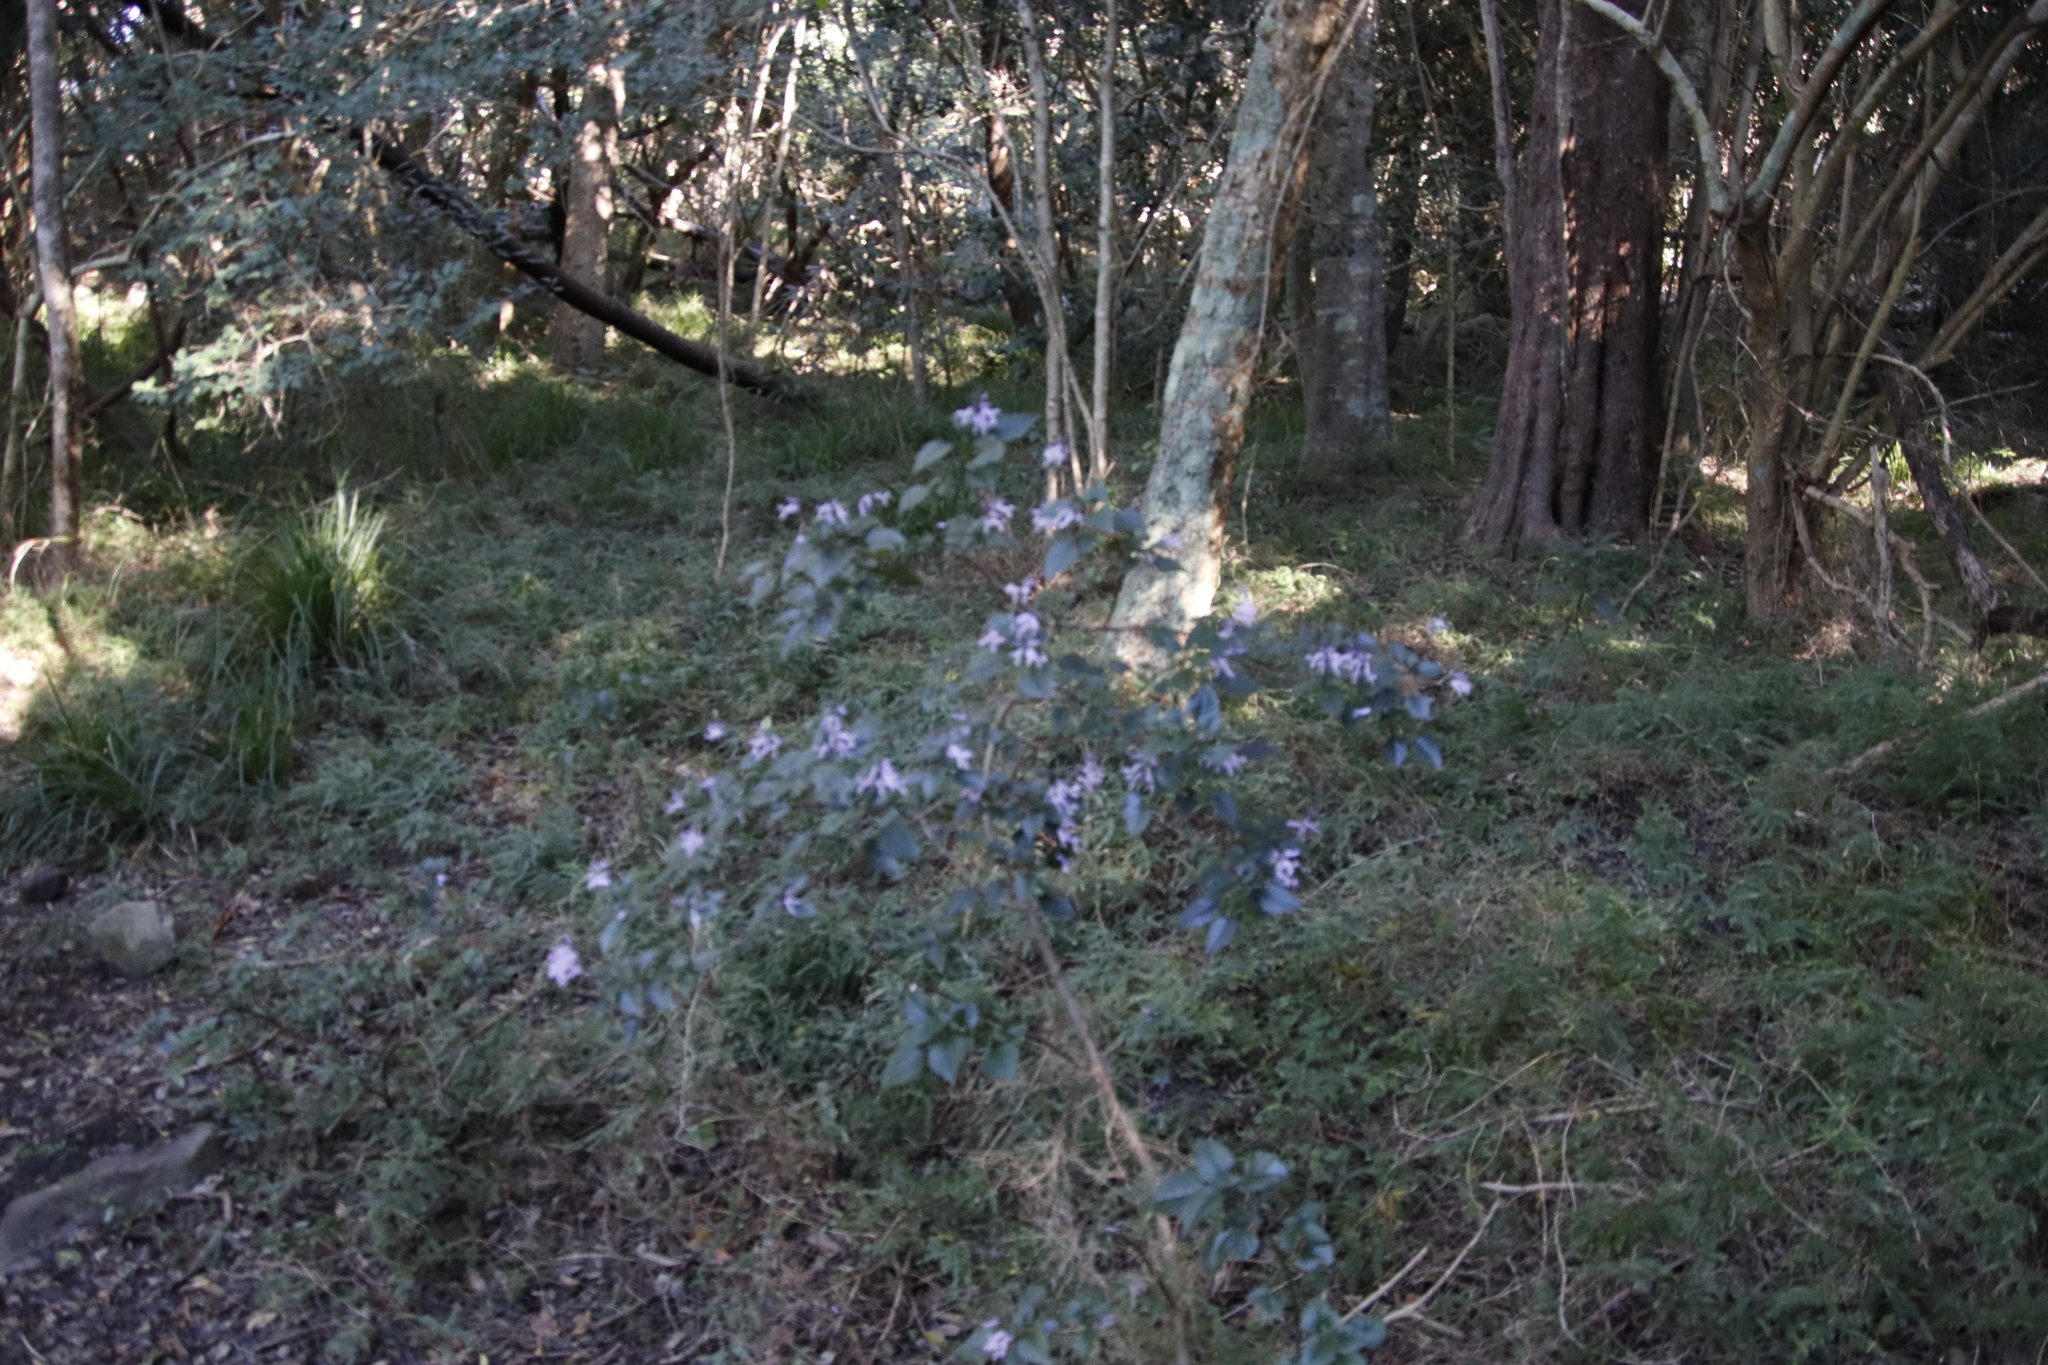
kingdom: Plantae
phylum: Tracheophyta
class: Magnoliopsida
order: Lamiales
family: Lamiaceae
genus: Plectranthus
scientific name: Plectranthus saccatus
